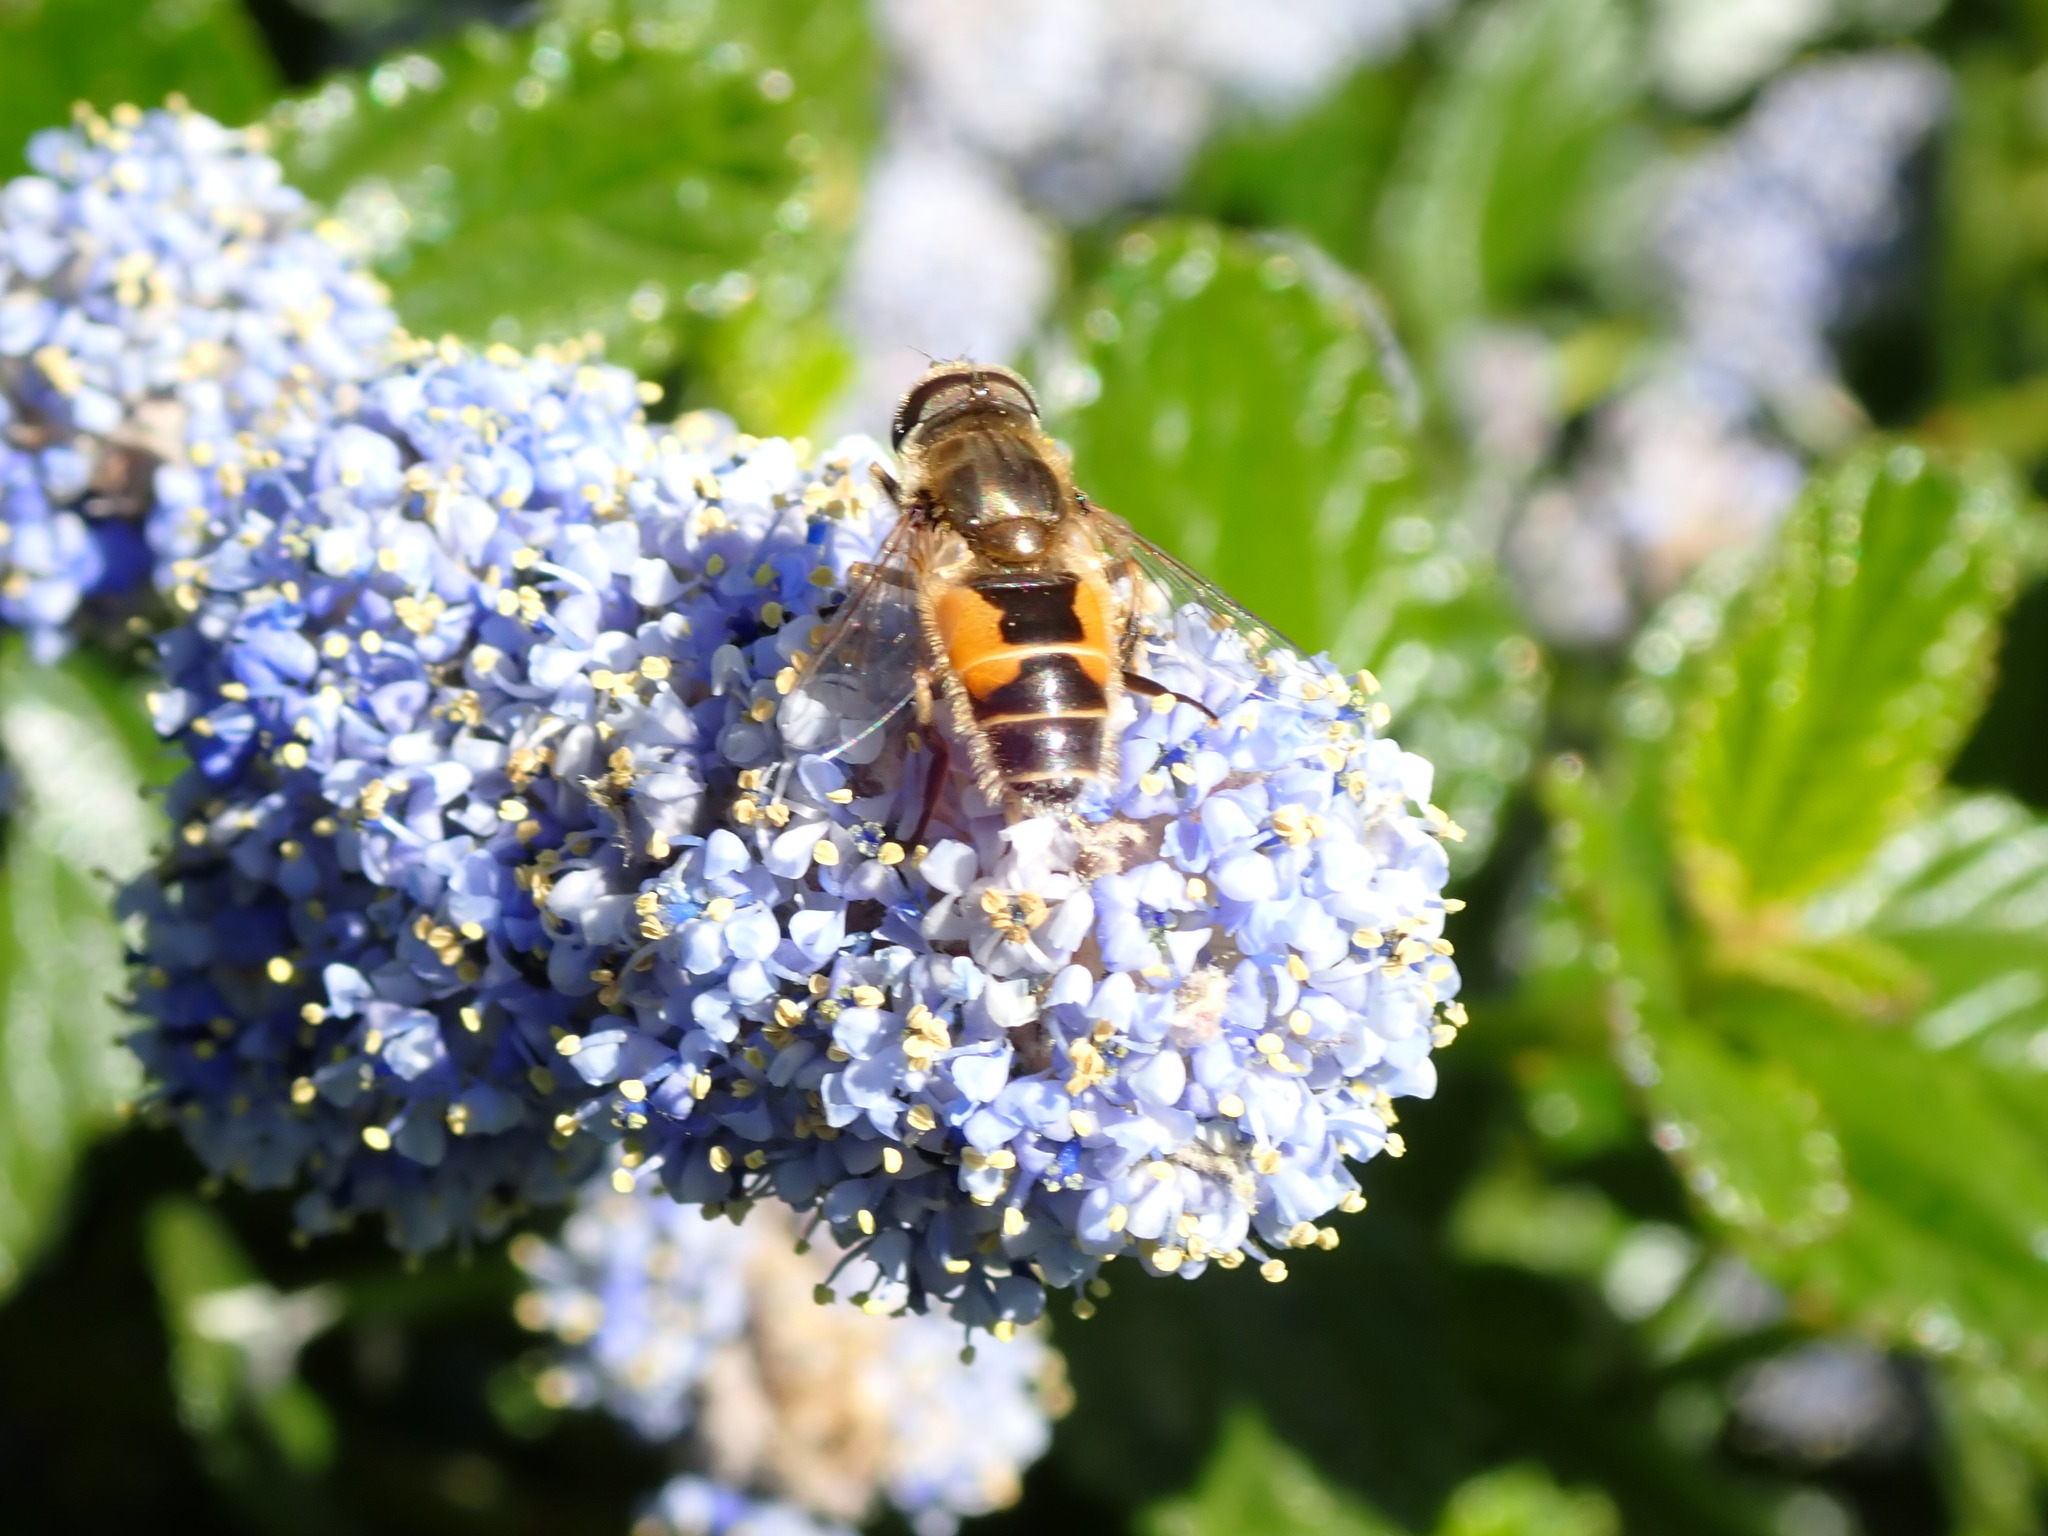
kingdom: Animalia
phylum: Arthropoda
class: Insecta
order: Diptera
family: Syrphidae
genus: Eristalis
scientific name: Eristalis arbustorum
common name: Hover fly
